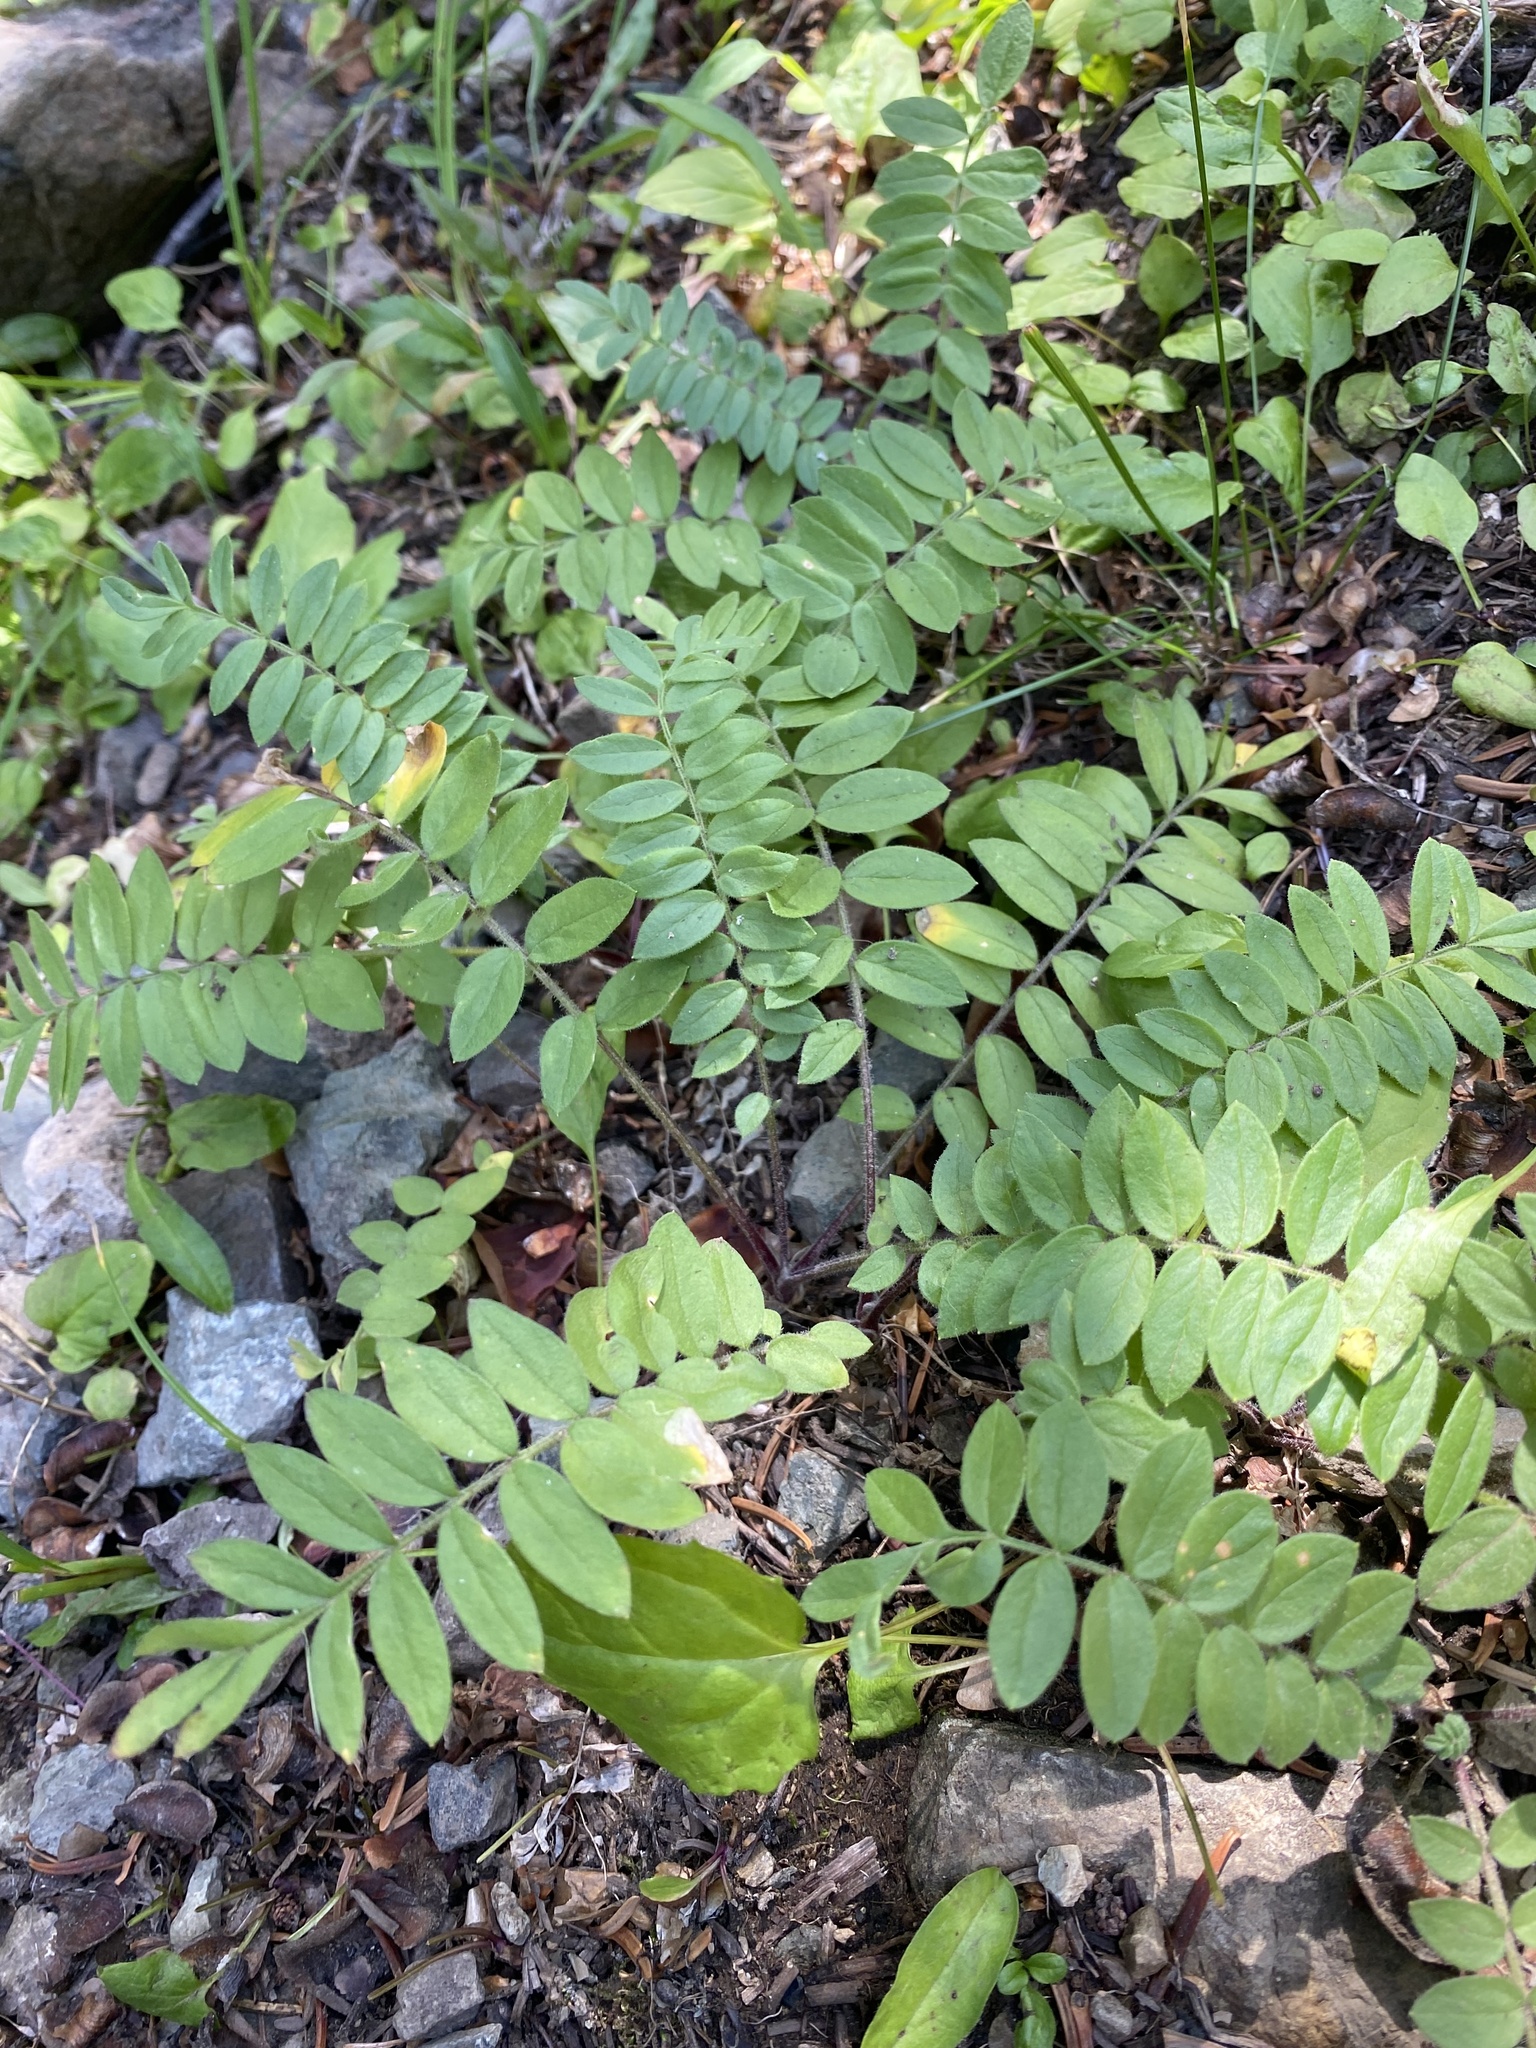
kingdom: Plantae
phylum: Tracheophyta
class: Magnoliopsida
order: Ericales
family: Polemoniaceae
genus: Polemonium
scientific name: Polemonium californicum
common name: California jacob's ladder
